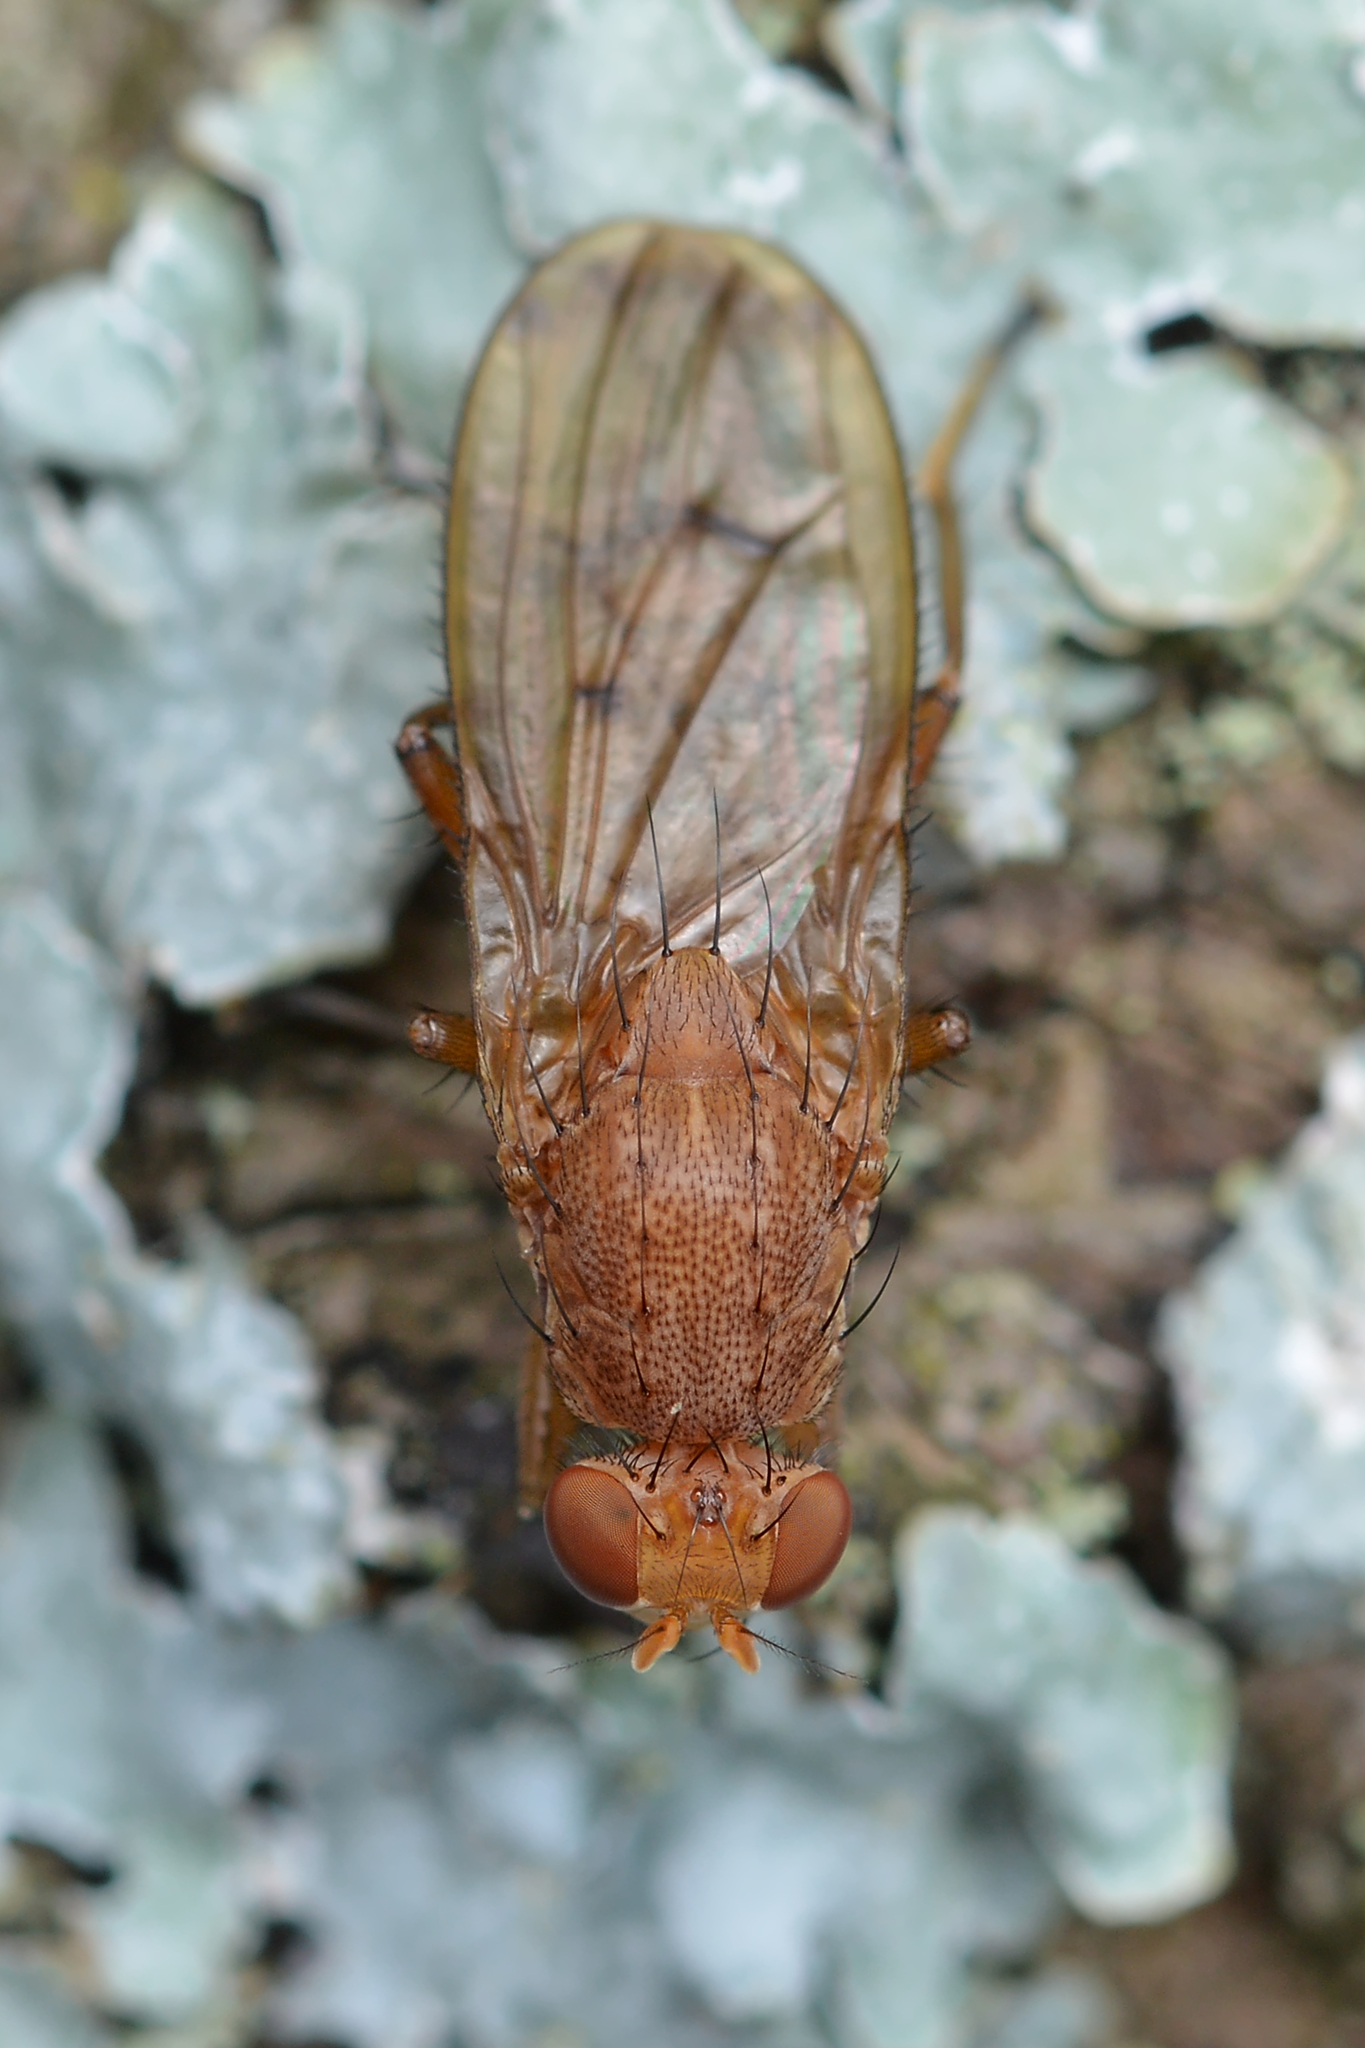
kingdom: Animalia
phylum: Arthropoda
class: Insecta
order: Diptera
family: Heleomyzidae
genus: Suillia
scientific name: Suillia quinquepunctata
